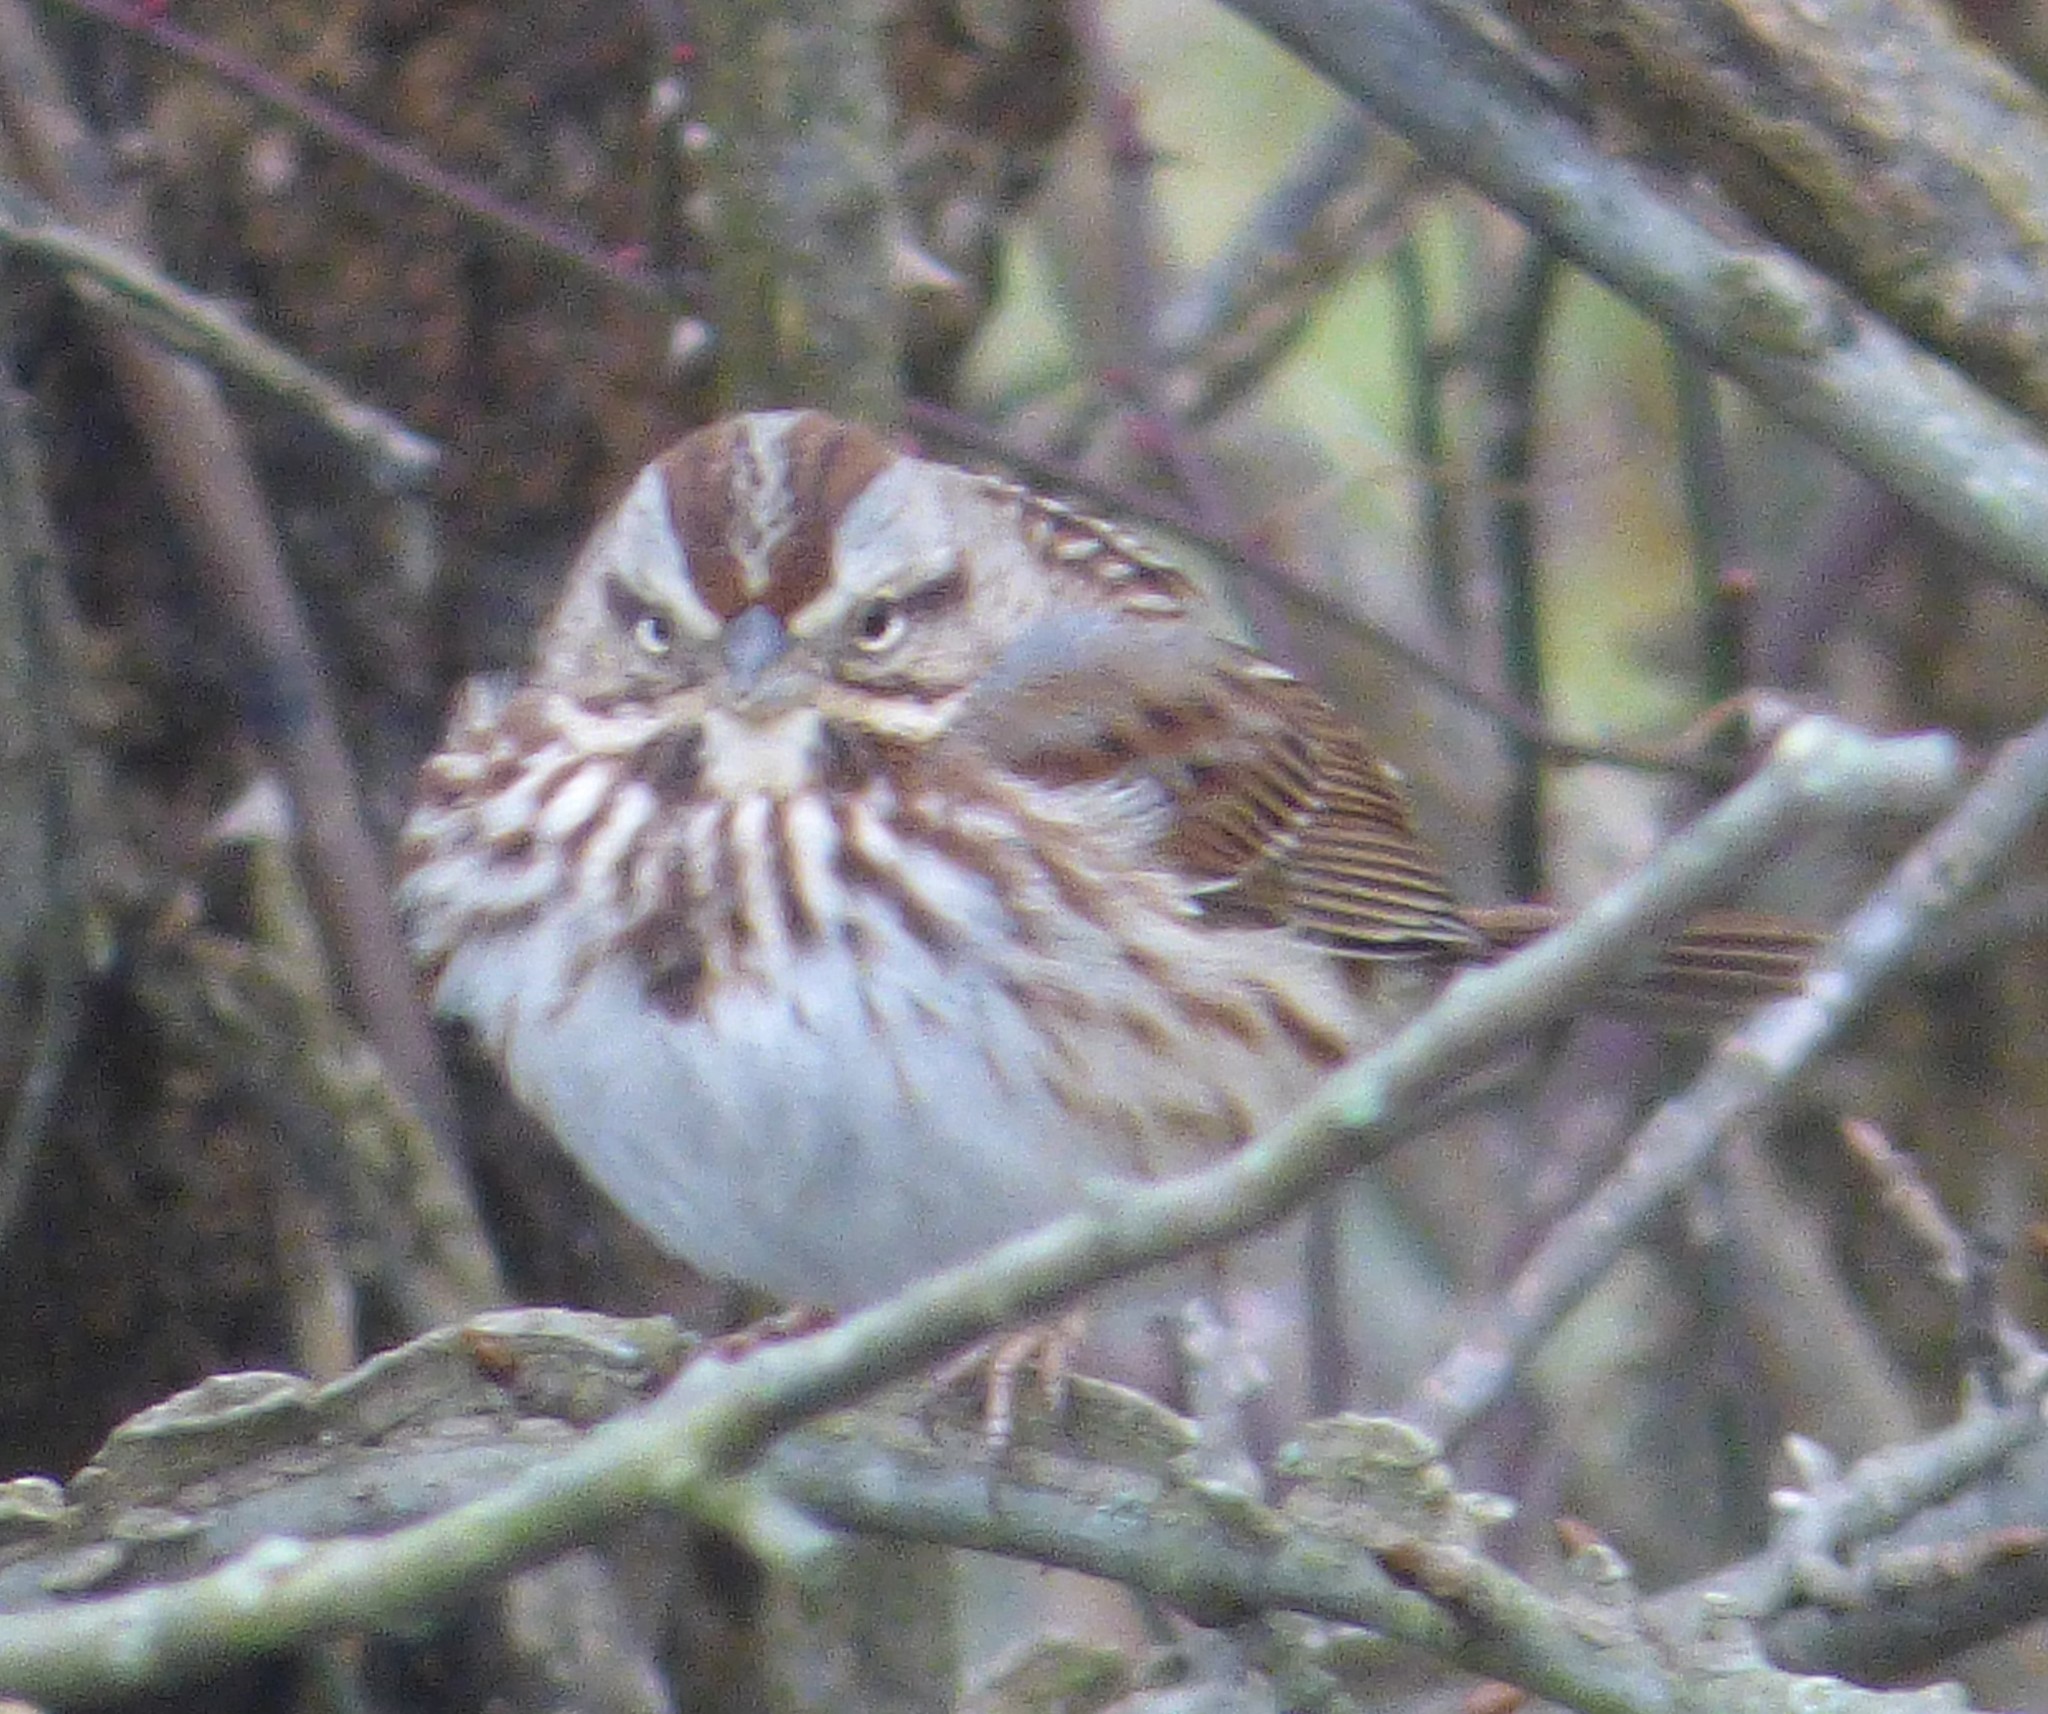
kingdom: Animalia
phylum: Chordata
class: Aves
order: Passeriformes
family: Passerellidae
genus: Melospiza
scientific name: Melospiza melodia
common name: Song sparrow
